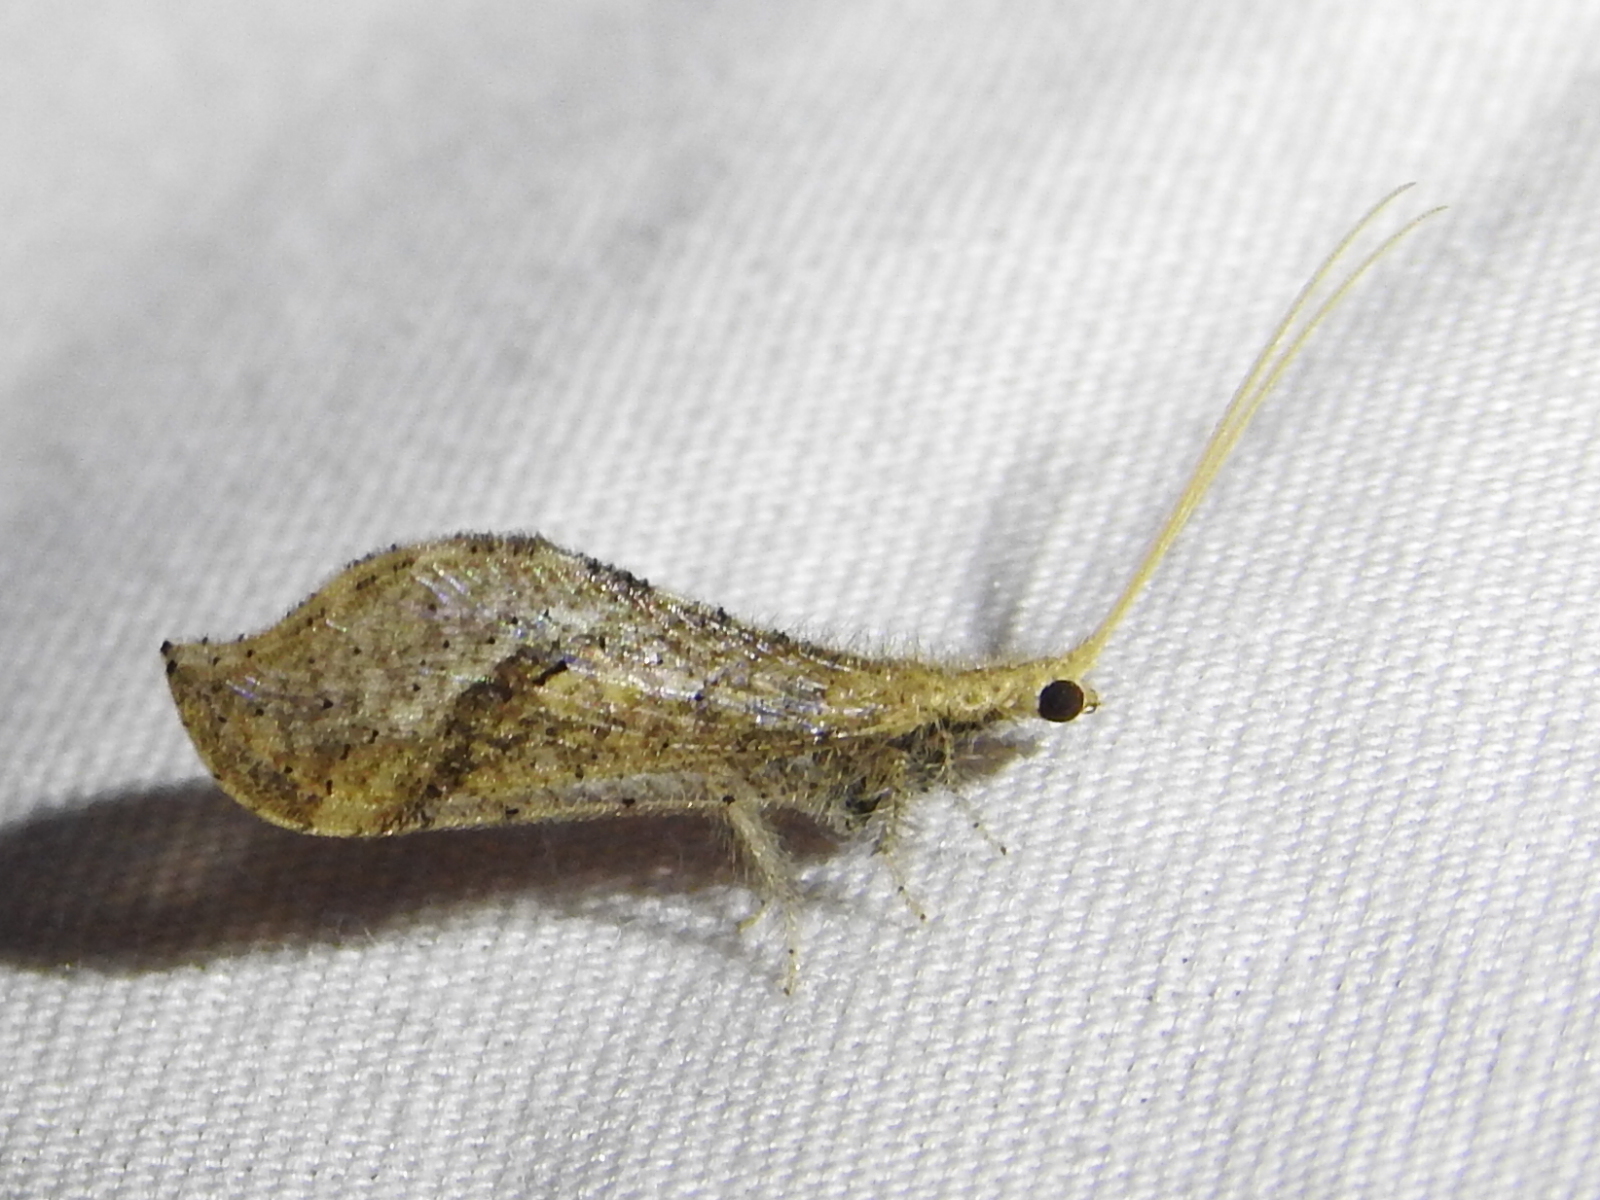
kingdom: Animalia
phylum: Arthropoda
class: Insecta
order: Neuroptera
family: Berothidae
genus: Lomamyia
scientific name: Lomamyia squamosa
